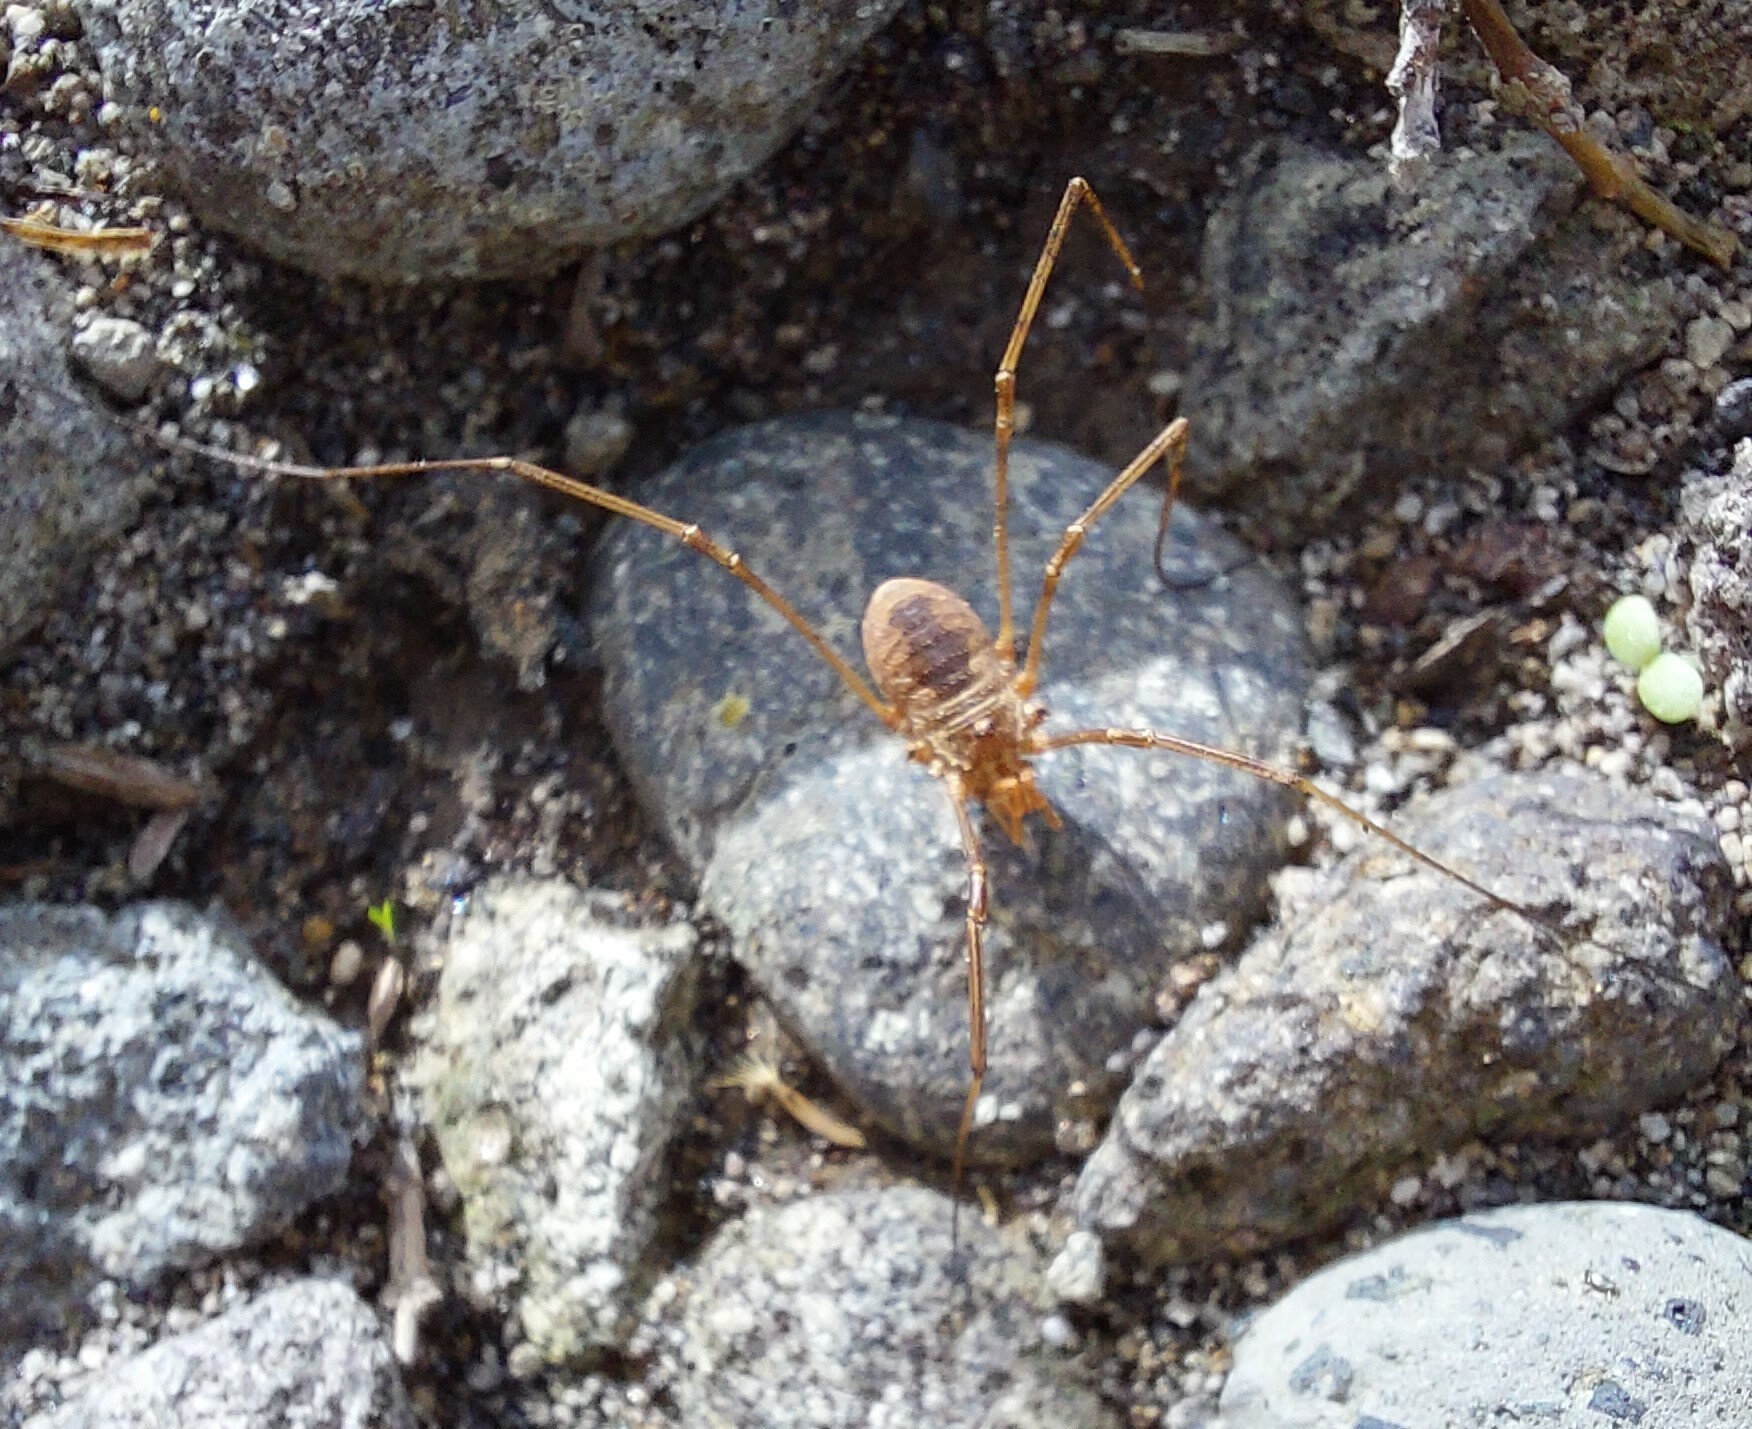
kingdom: Animalia
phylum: Arthropoda
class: Arachnida
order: Opiliones
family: Phalangiidae
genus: Phalangium
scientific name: Phalangium opilio
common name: Daddy longleg
